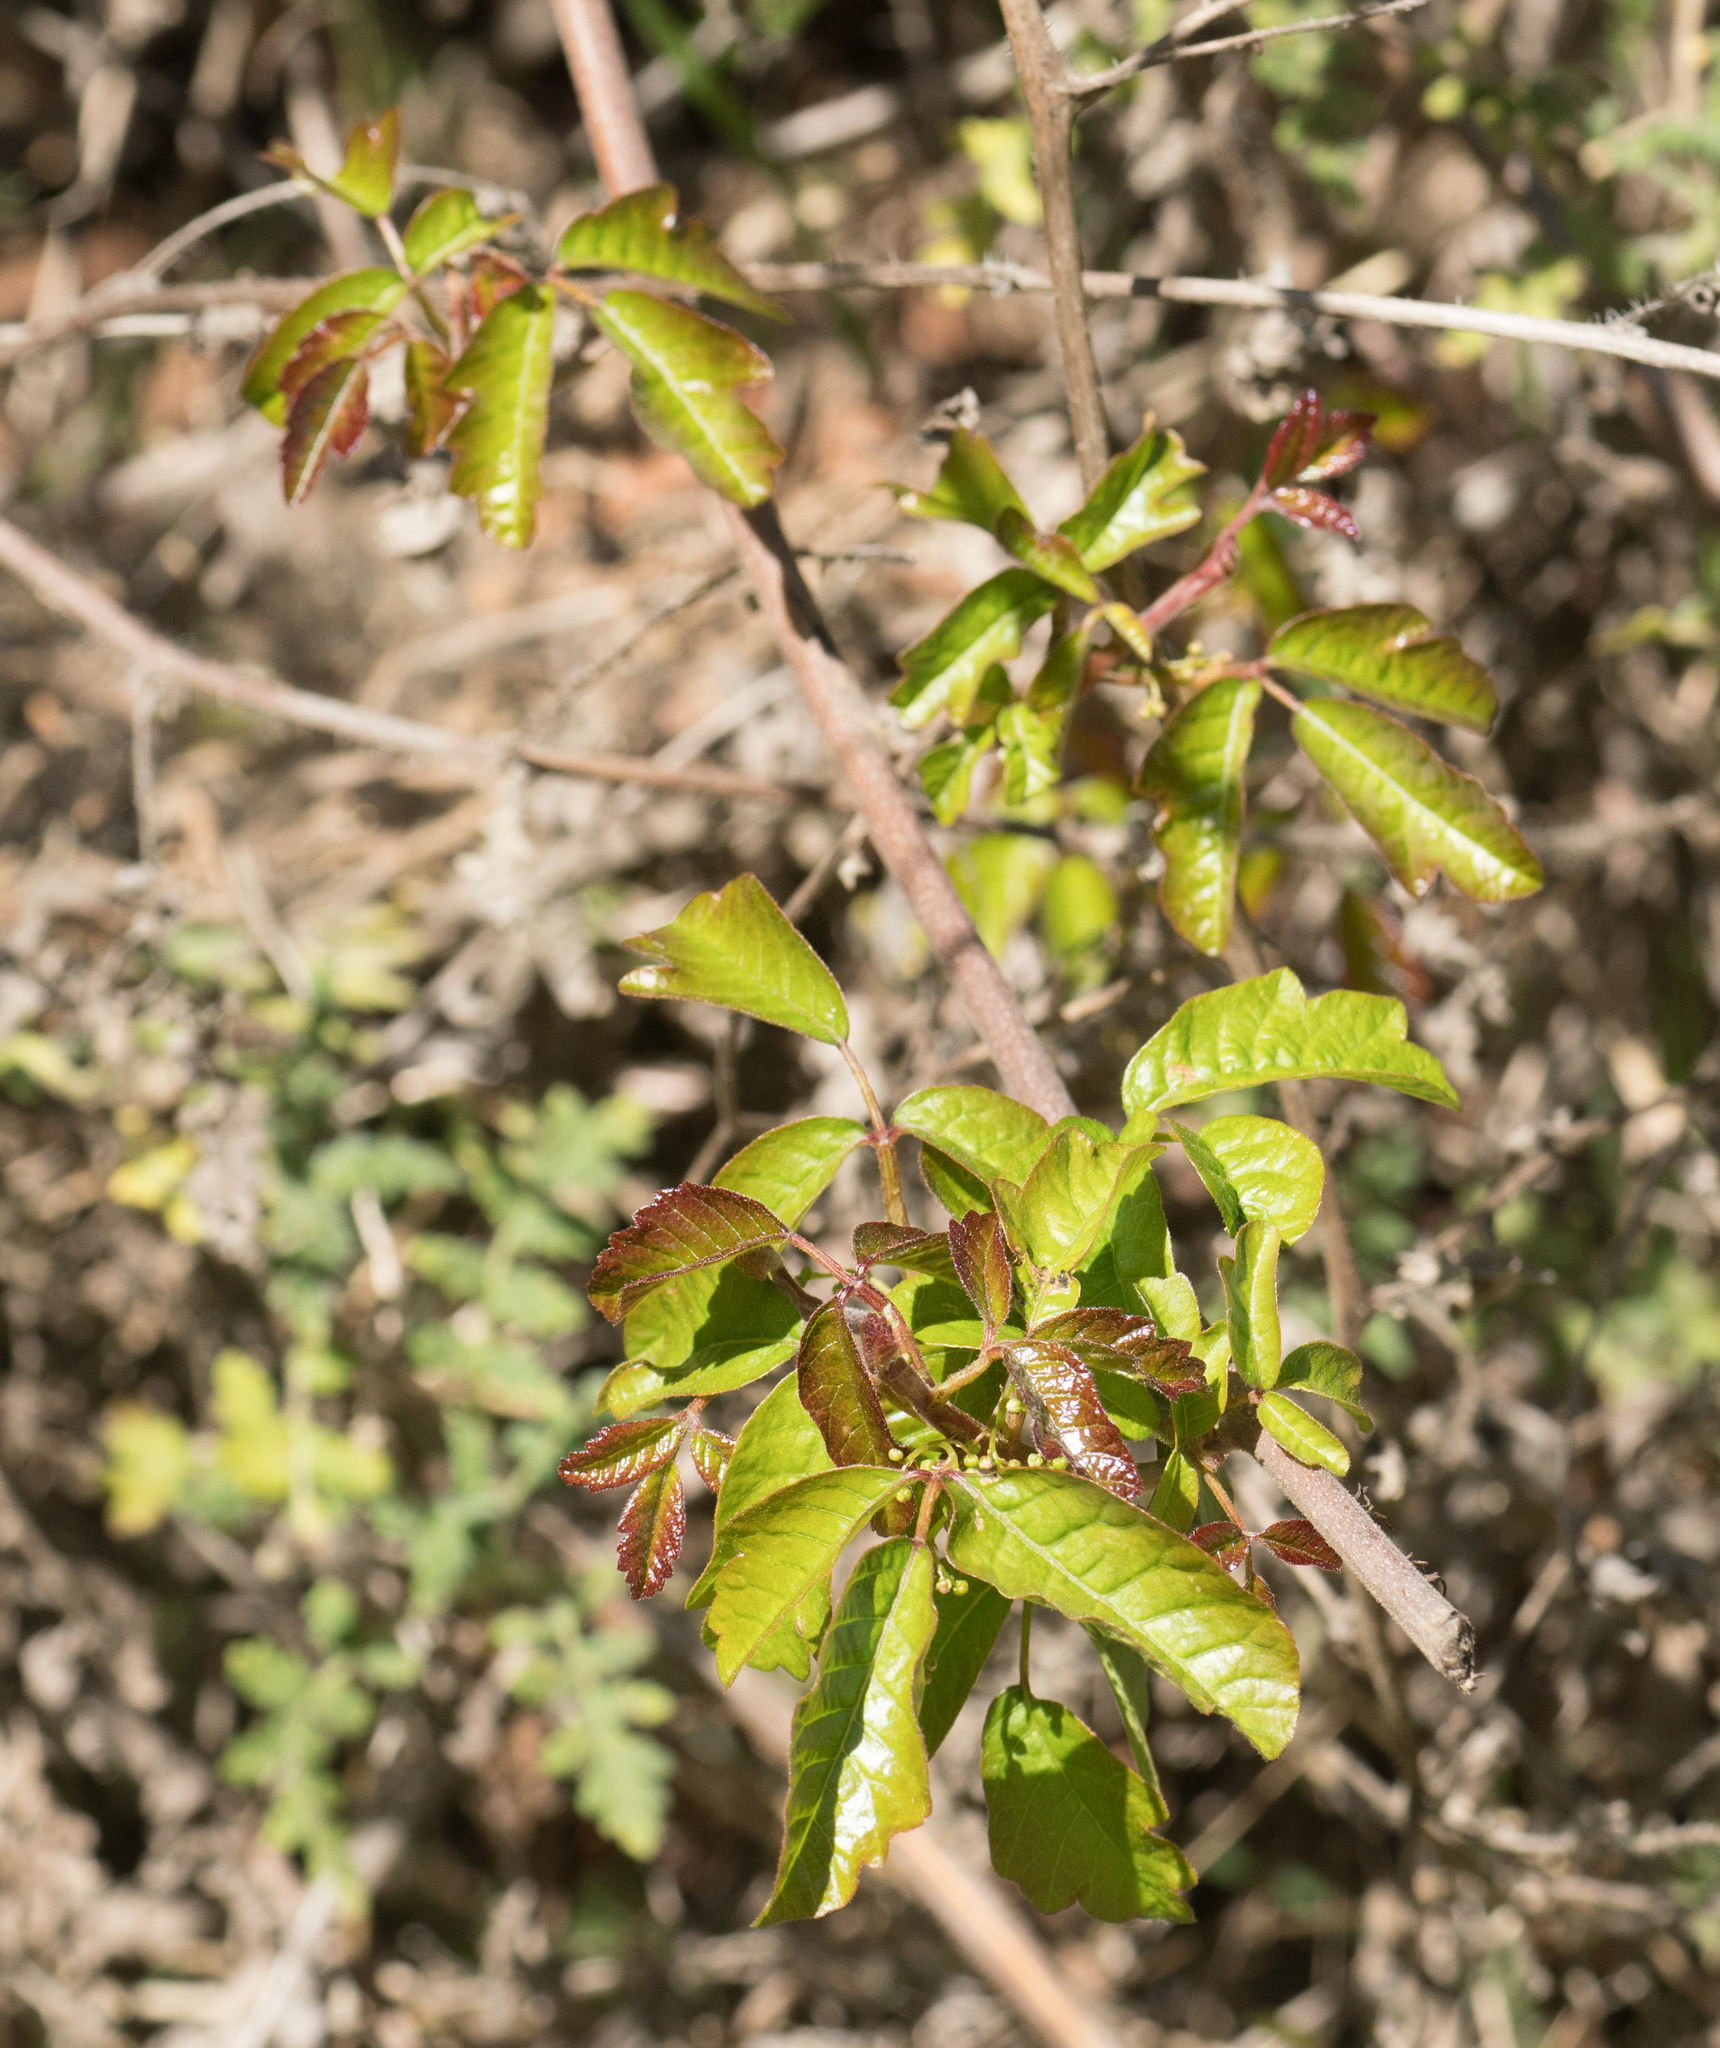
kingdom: Plantae
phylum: Tracheophyta
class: Magnoliopsida
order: Sapindales
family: Anacardiaceae
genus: Toxicodendron
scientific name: Toxicodendron diversilobum
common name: Pacific poison-oak
